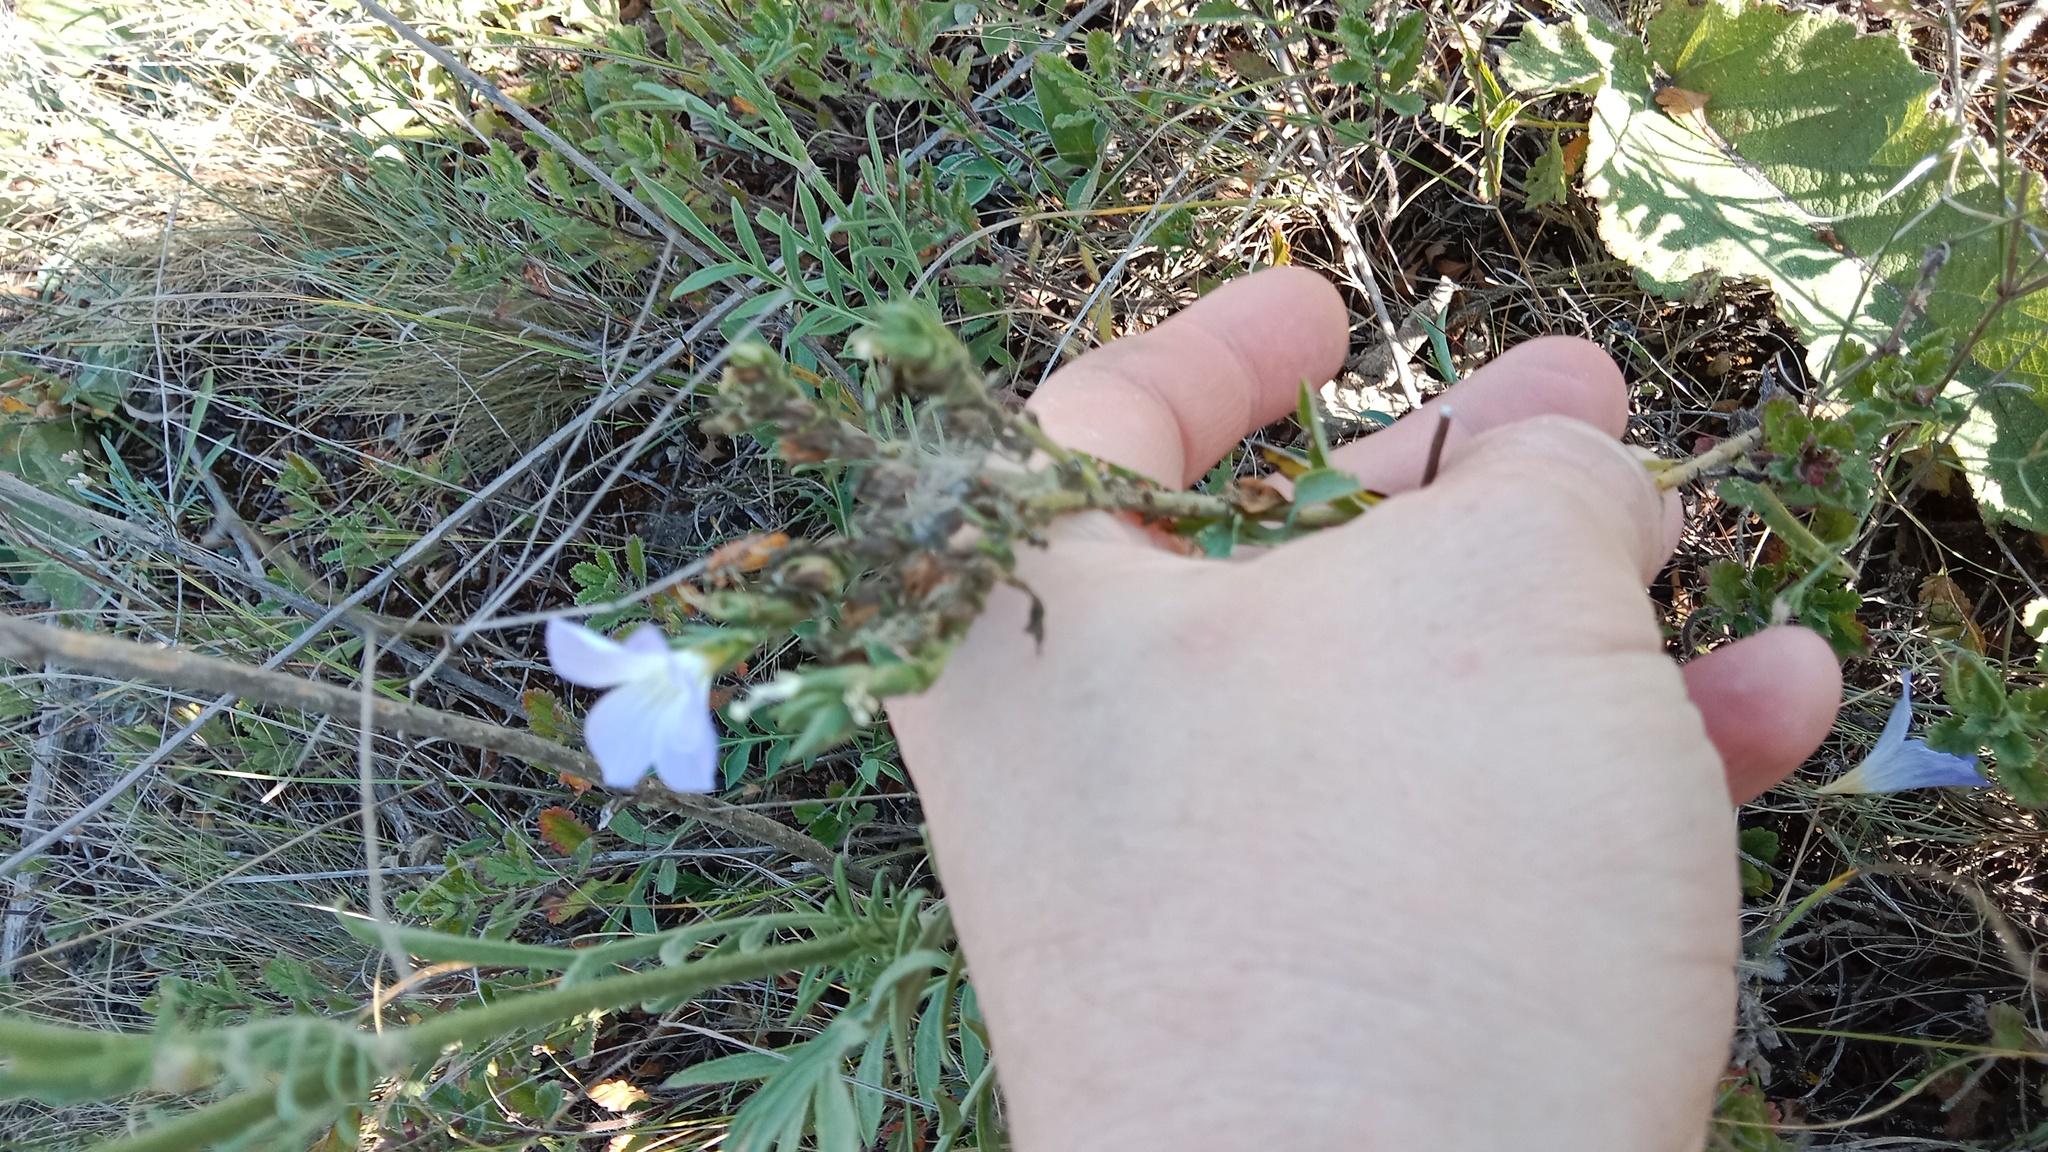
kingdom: Plantae
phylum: Tracheophyta
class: Magnoliopsida
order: Malpighiales
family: Linaceae
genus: Linum
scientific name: Linum hirsutum
